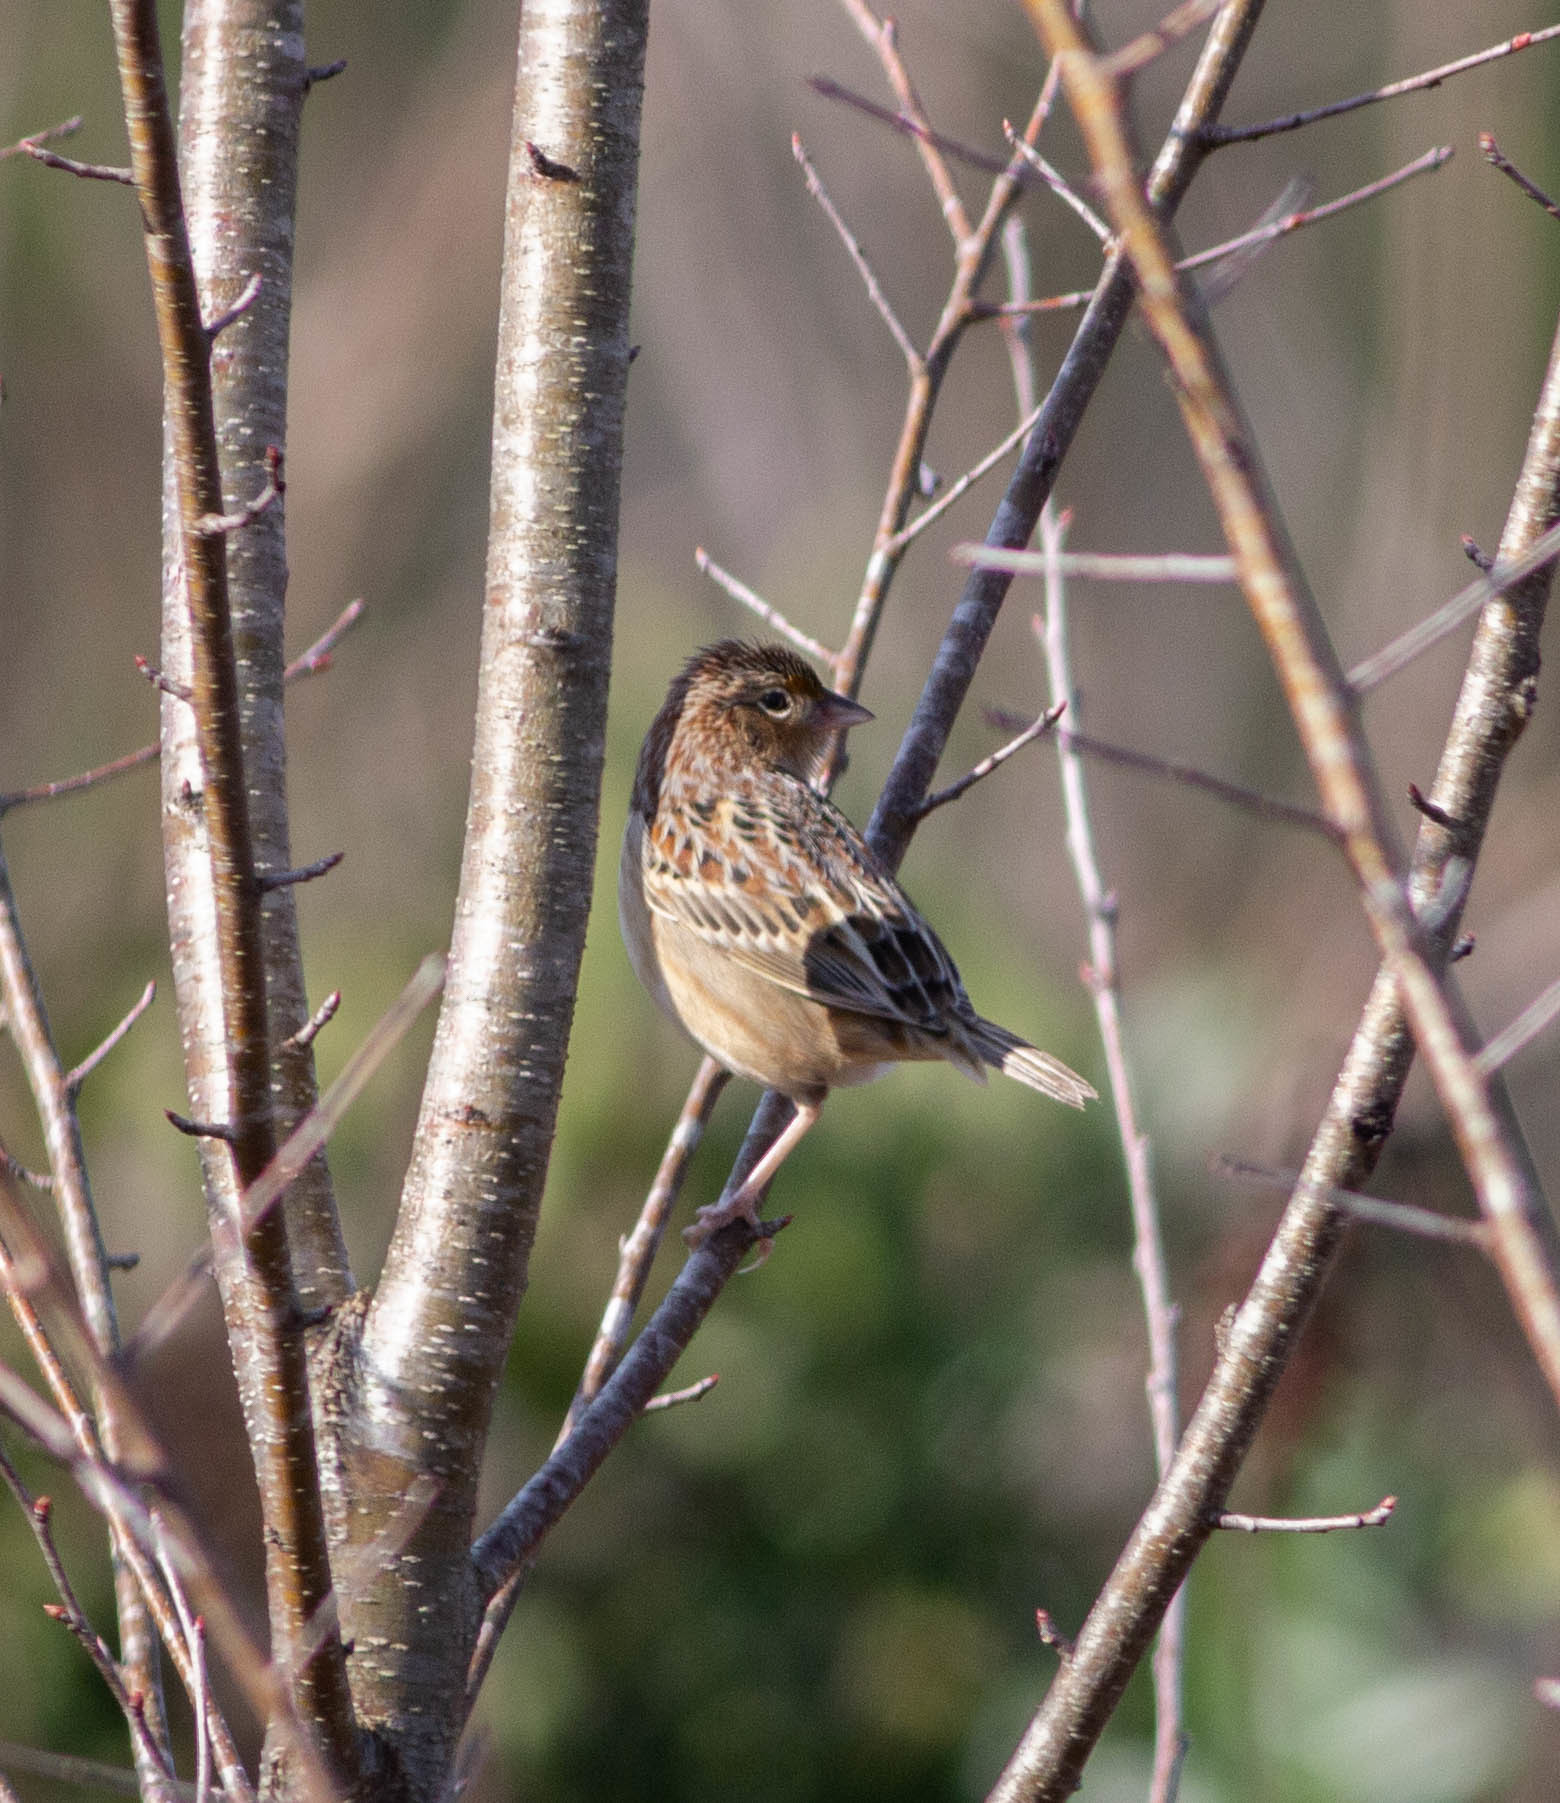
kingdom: Animalia
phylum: Chordata
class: Aves
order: Passeriformes
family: Passerellidae
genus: Ammodramus
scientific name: Ammodramus savannarum
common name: Grasshopper sparrow
